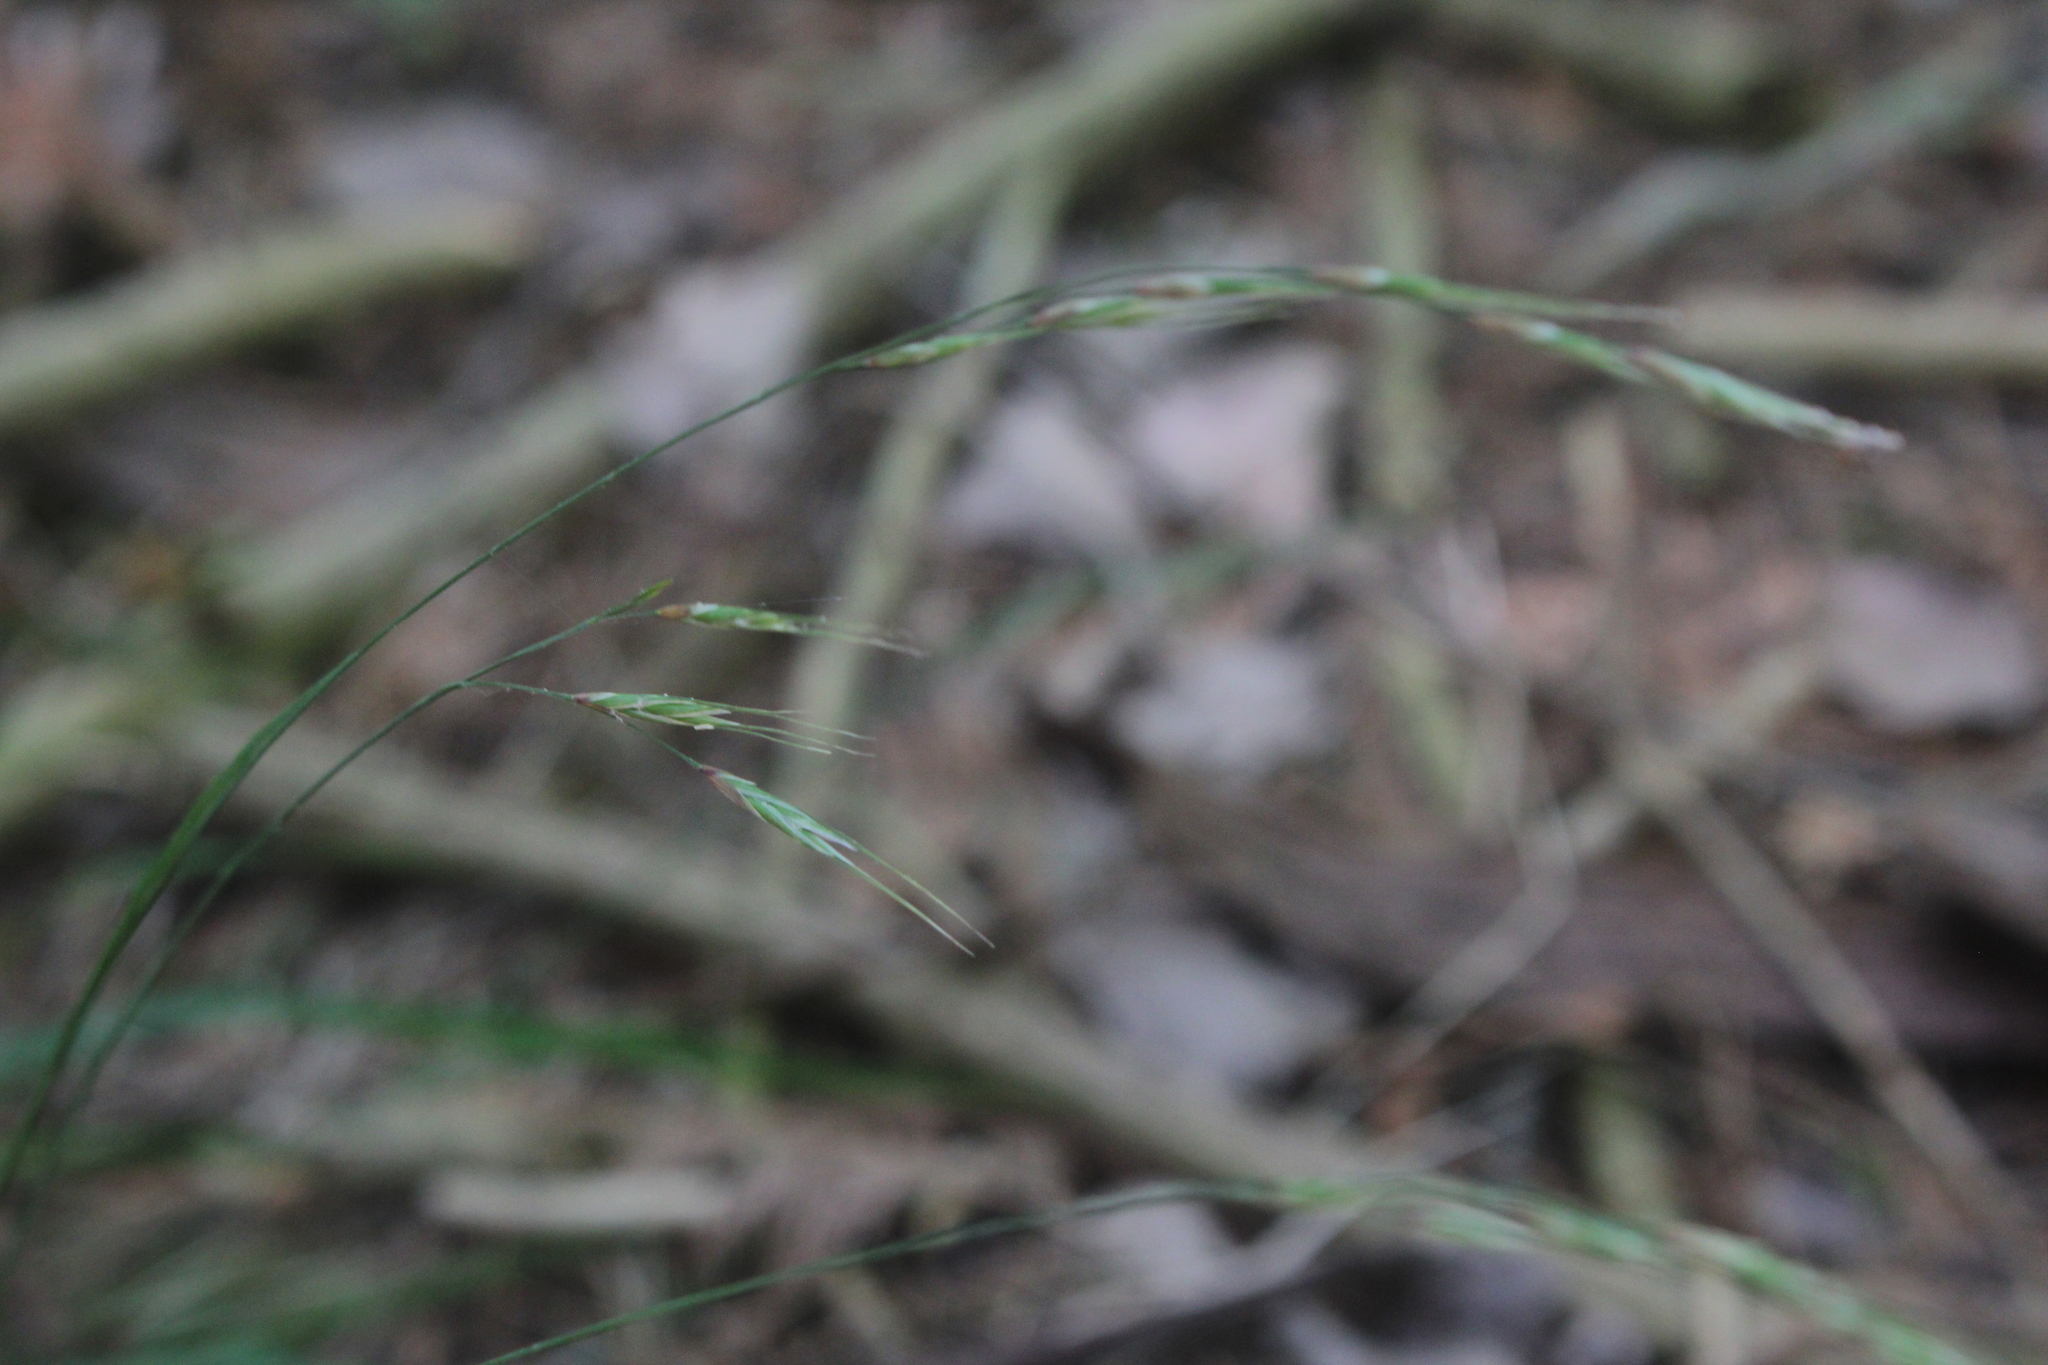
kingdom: Plantae
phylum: Tracheophyta
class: Liliopsida
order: Poales
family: Poaceae
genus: Schizachne
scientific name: Schizachne purpurascens
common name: False melic
